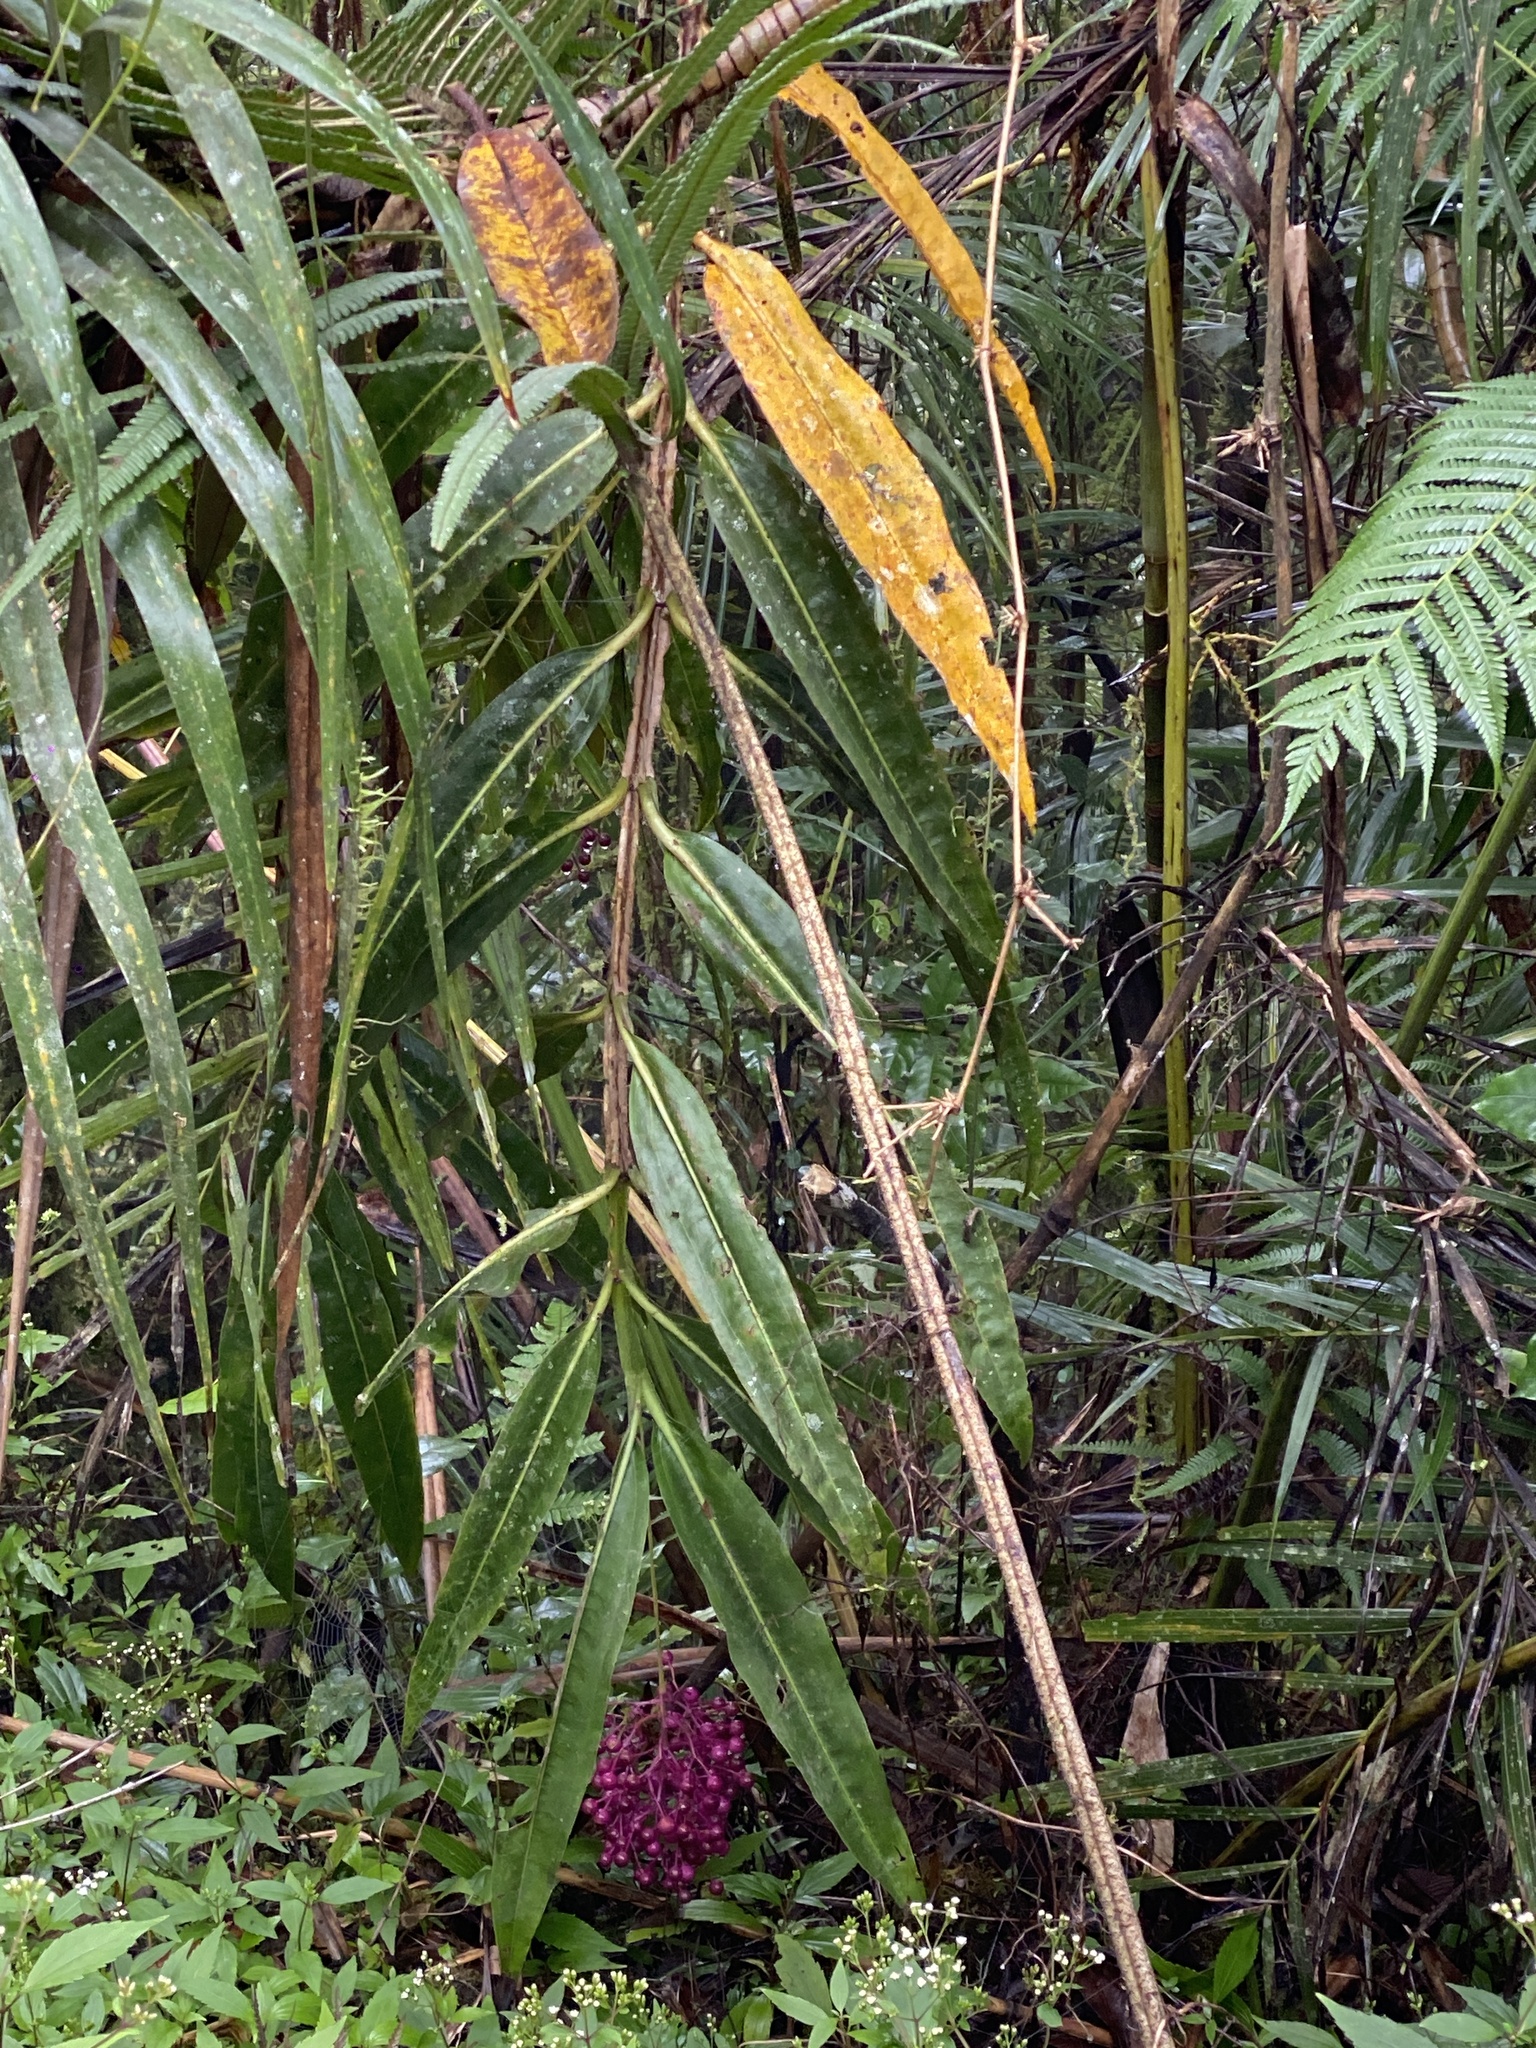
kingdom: Plantae
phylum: Tracheophyta
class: Magnoliopsida
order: Myrtales
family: Melastomataceae
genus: Medinilla
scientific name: Medinilla dolichophylla
